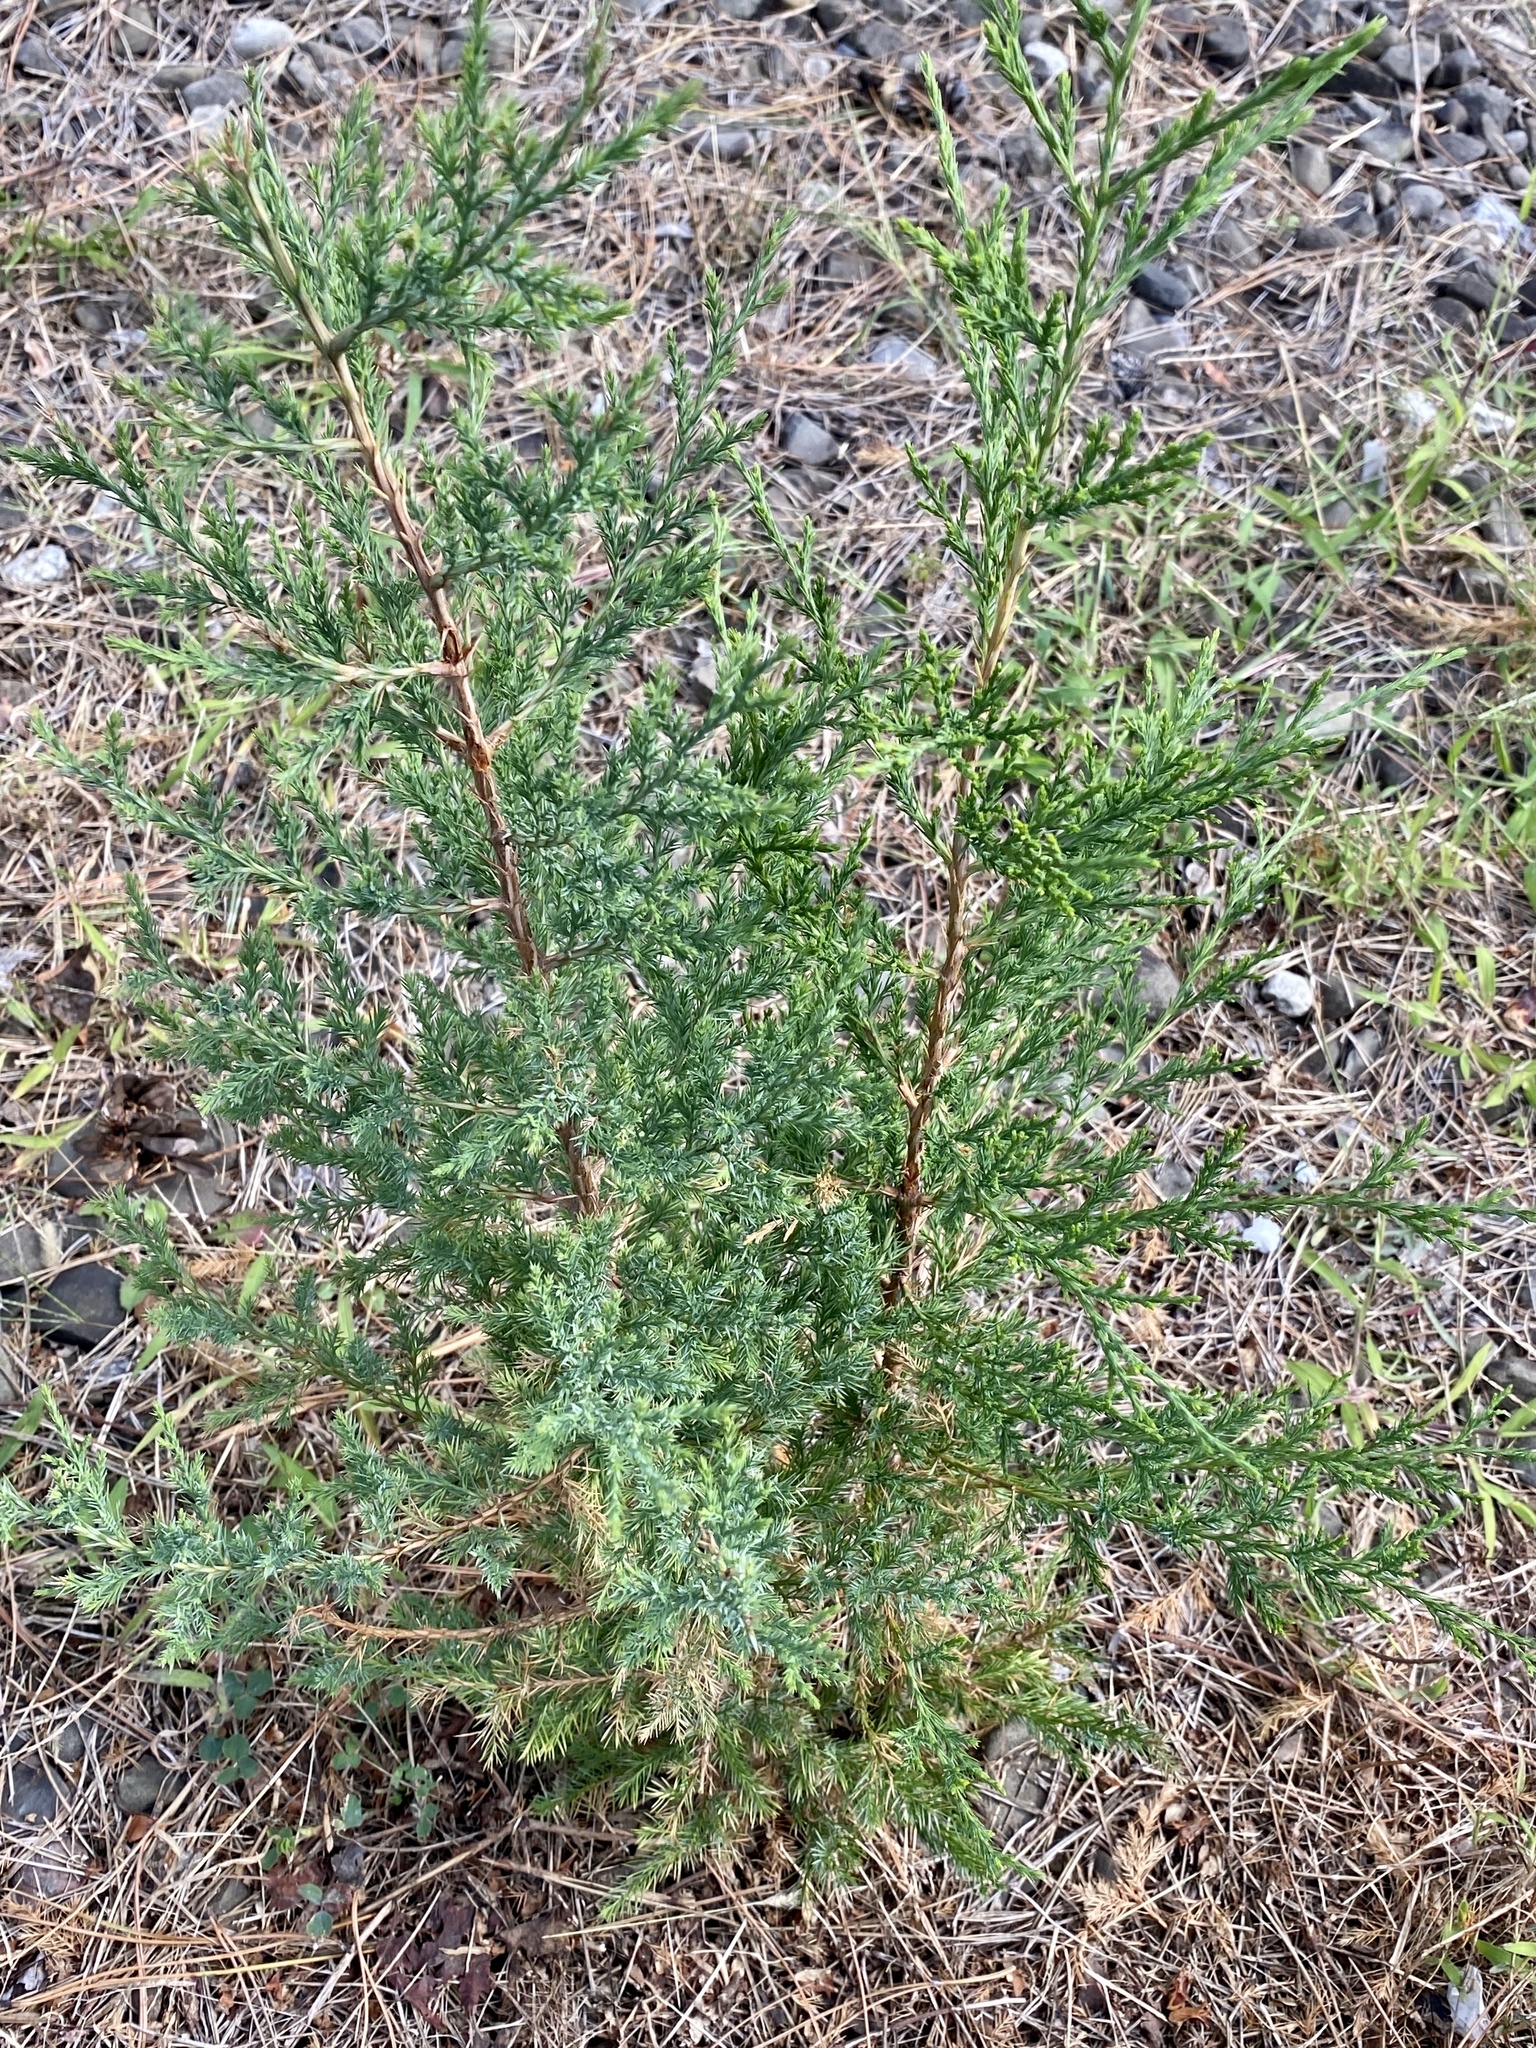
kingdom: Plantae
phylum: Tracheophyta
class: Pinopsida
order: Pinales
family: Cupressaceae
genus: Juniperus
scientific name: Juniperus virginiana
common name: Red juniper
